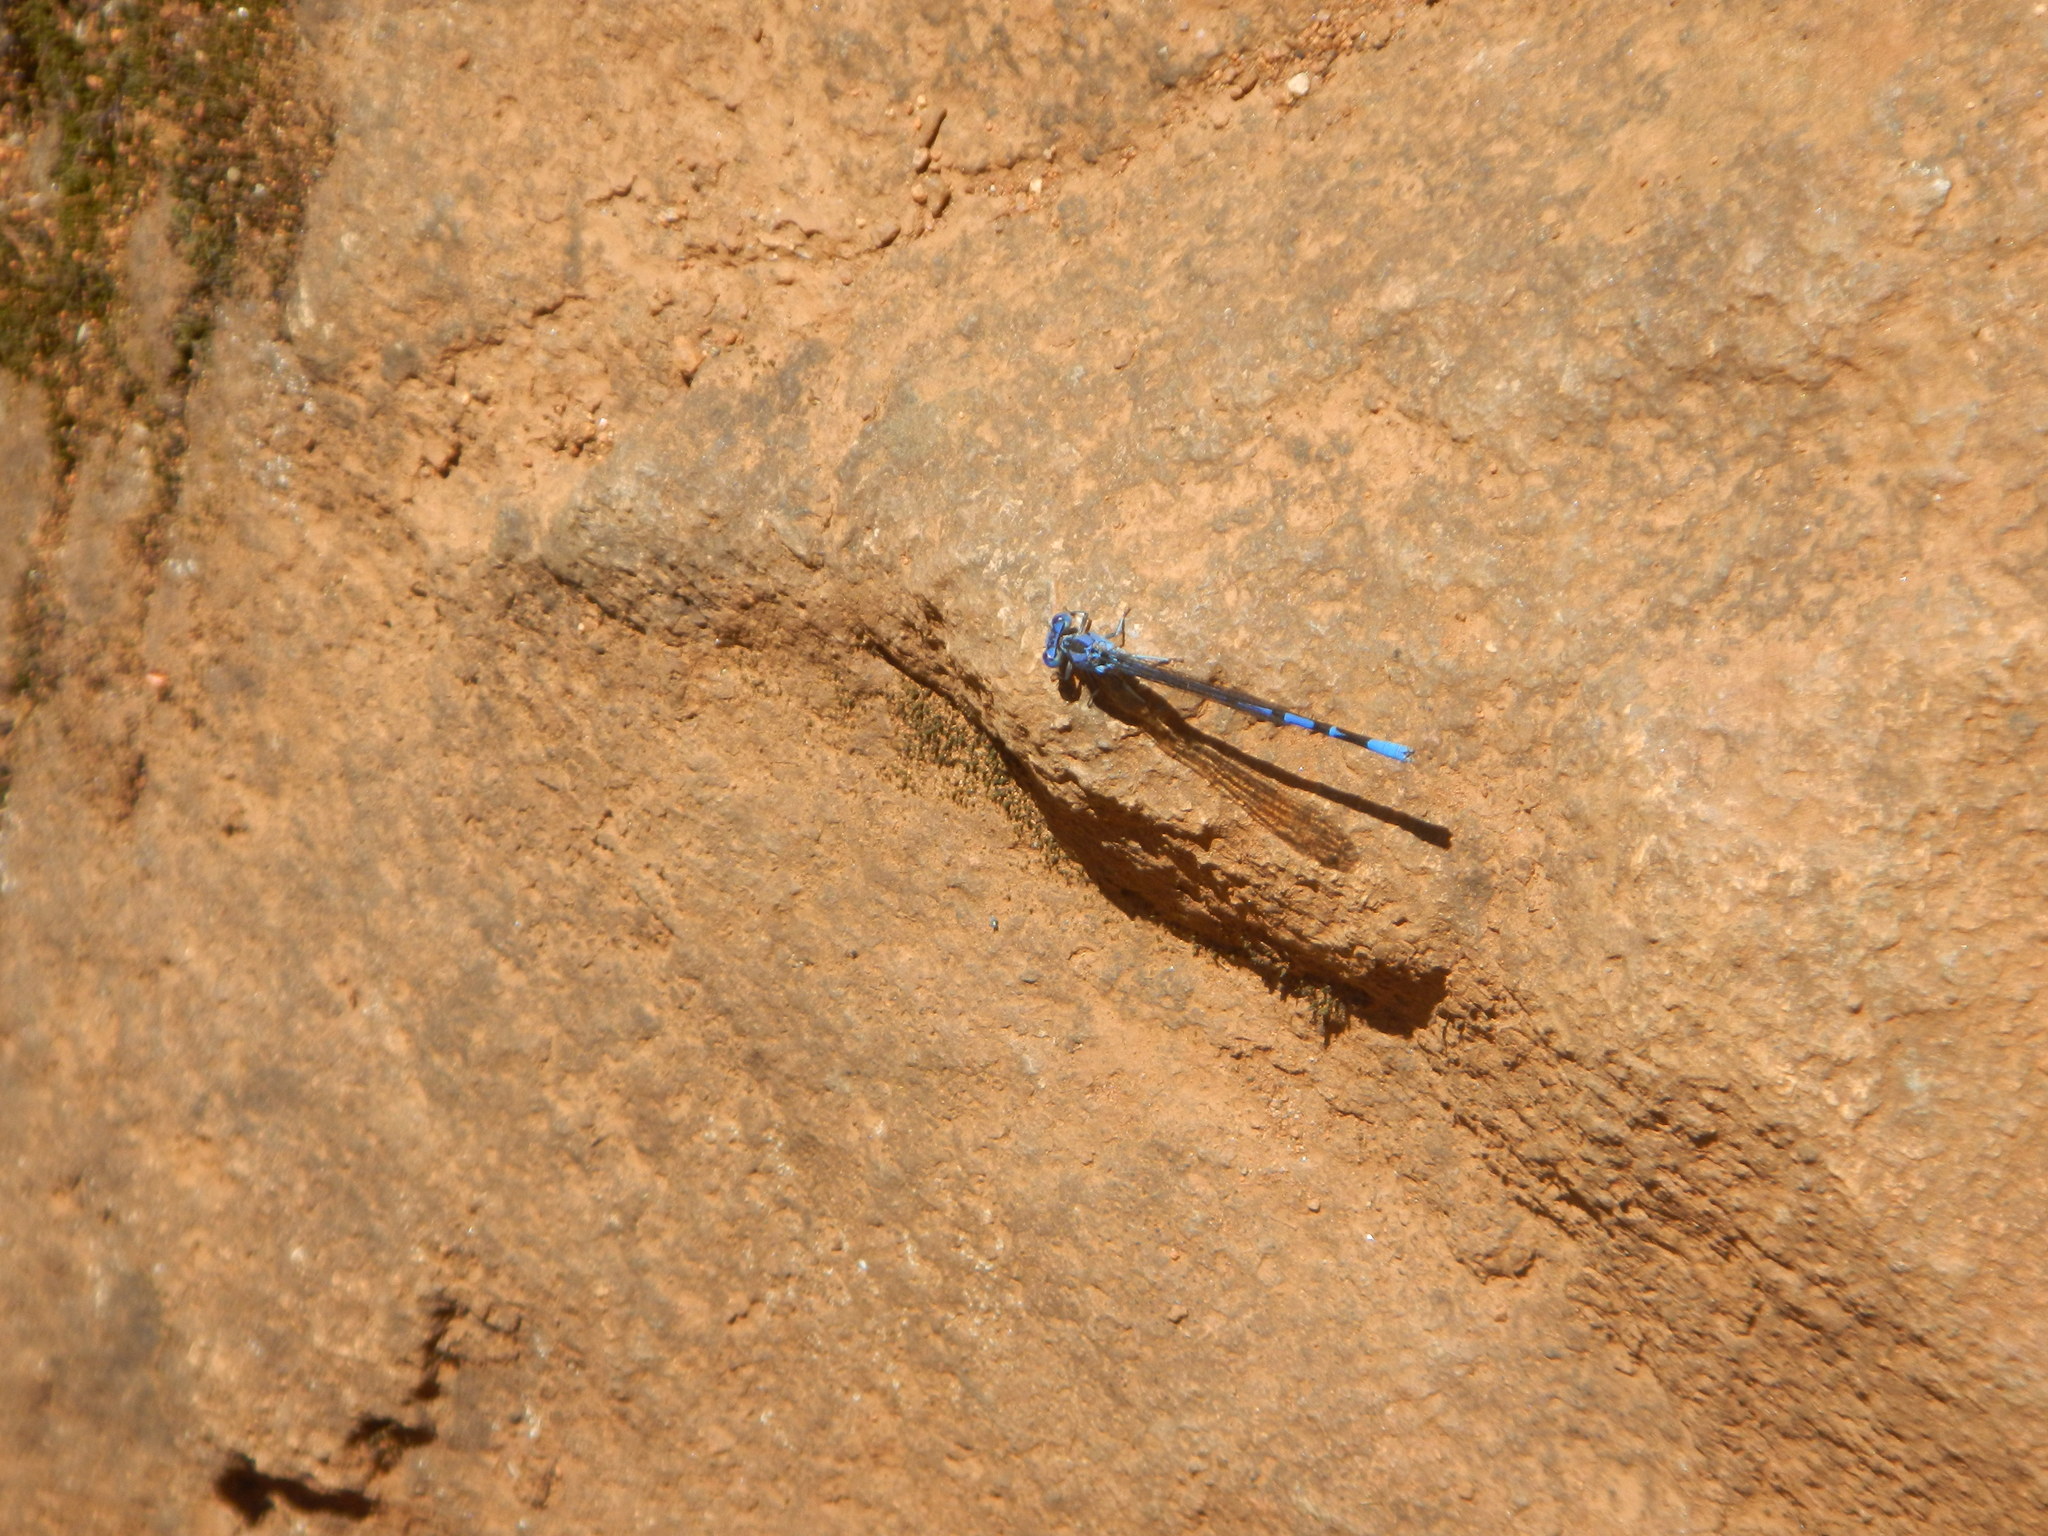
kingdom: Animalia
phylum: Arthropoda
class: Insecta
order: Odonata
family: Coenagrionidae
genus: Argia
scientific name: Argia vivida
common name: Vivid dancer
